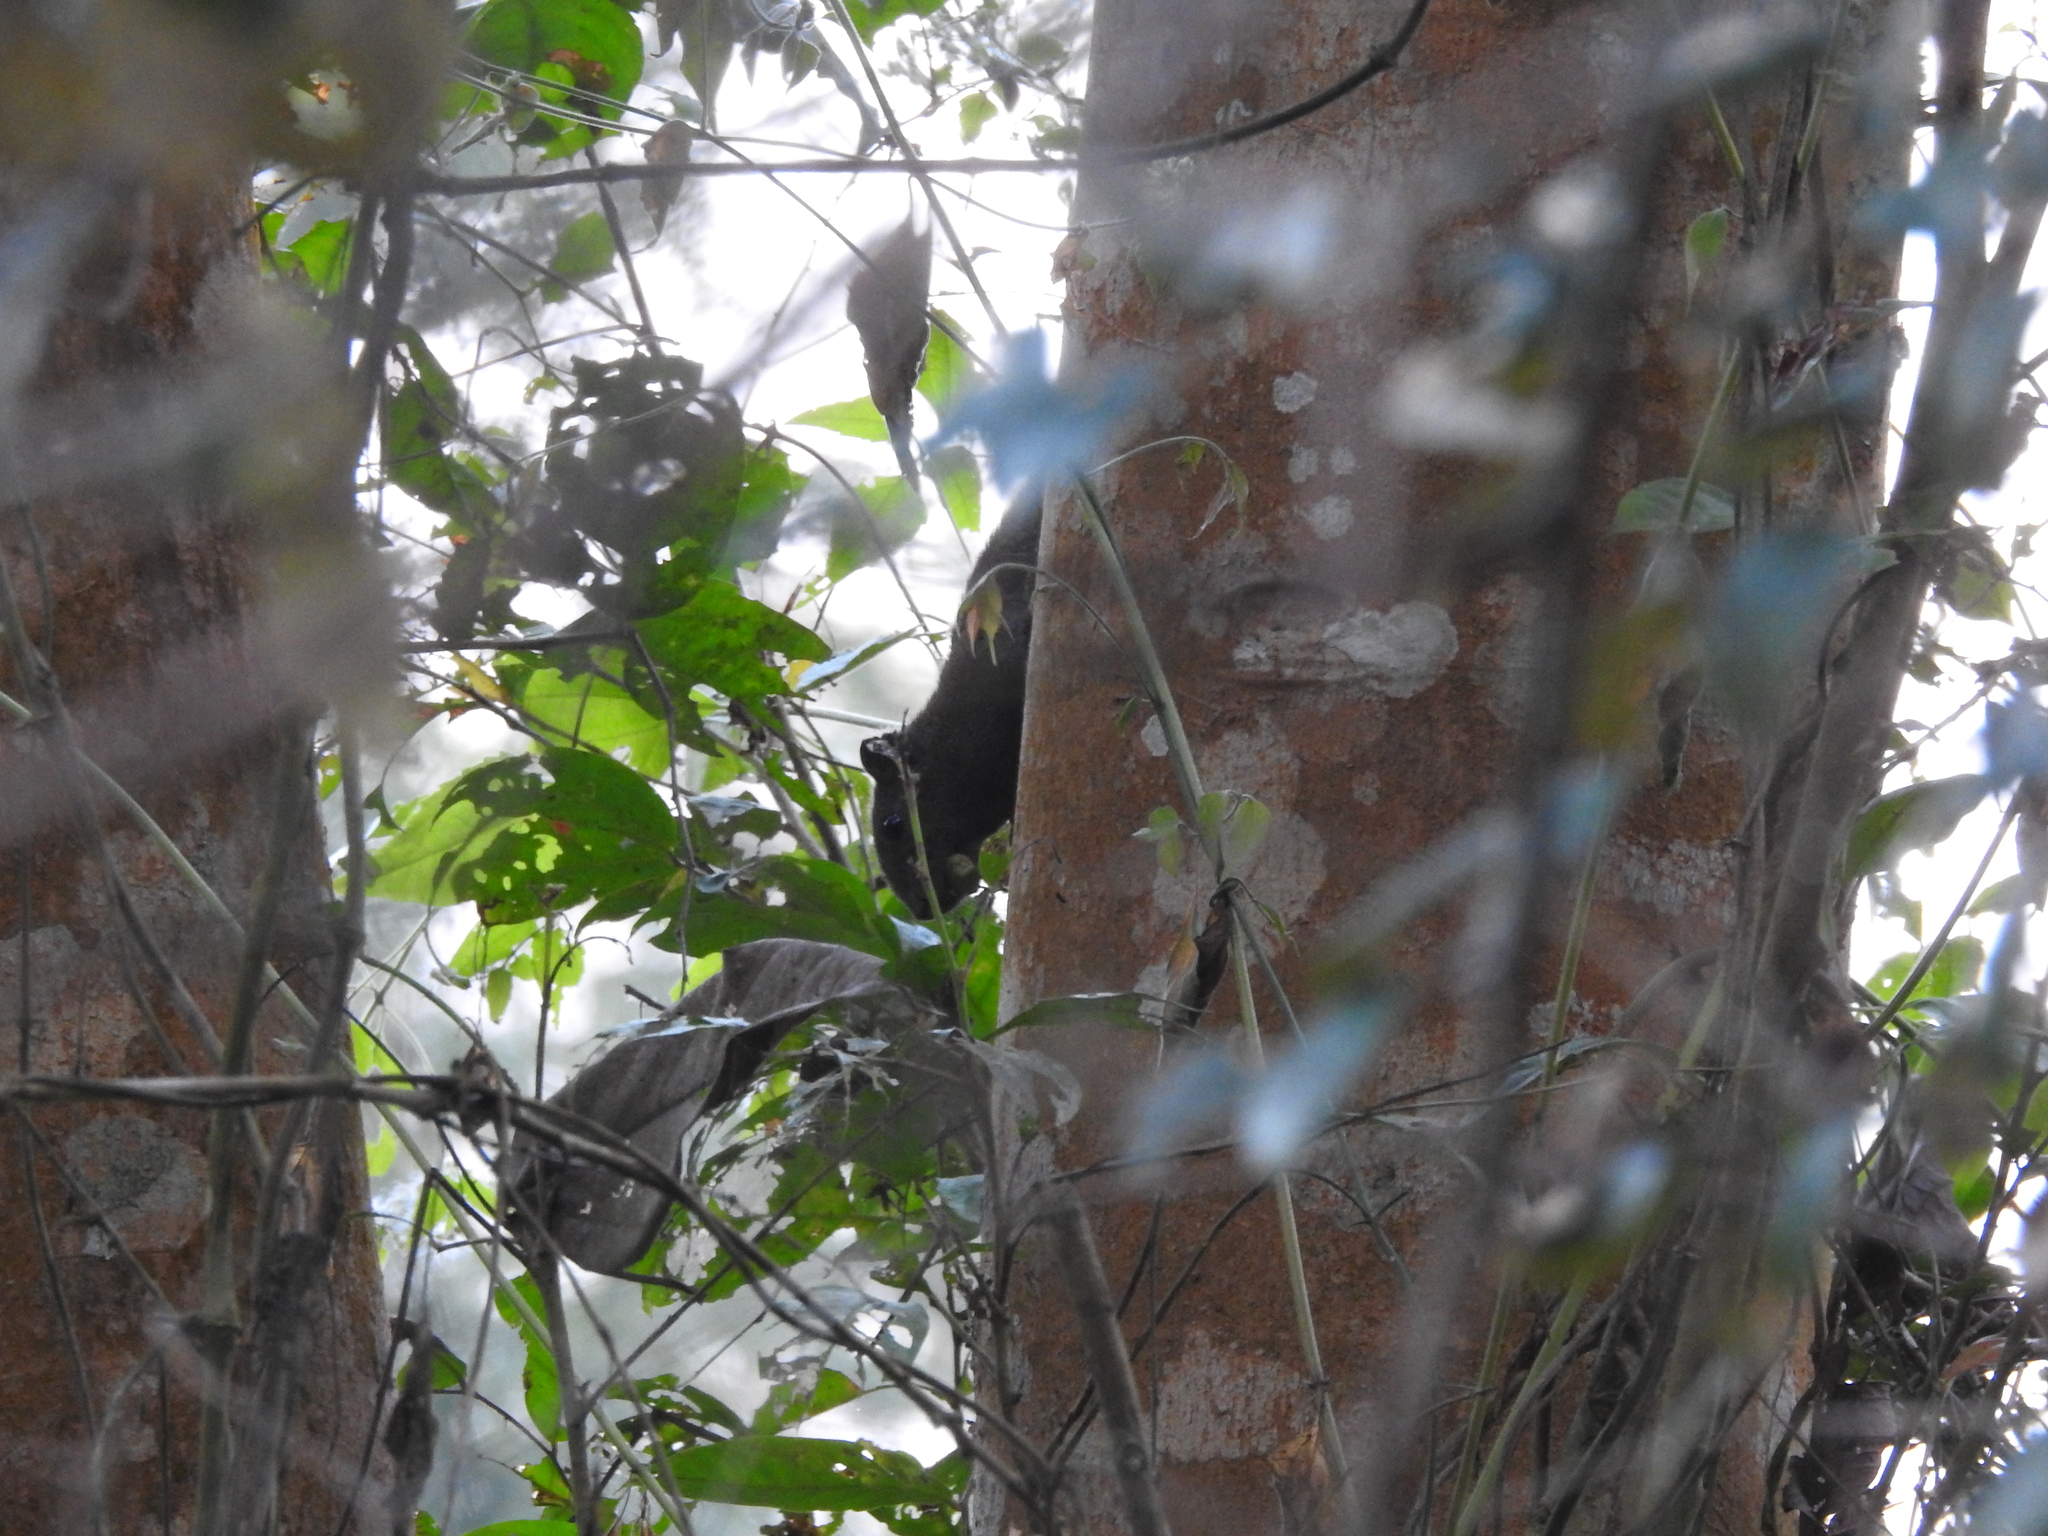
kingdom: Animalia
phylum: Chordata
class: Mammalia
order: Rodentia
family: Sciuridae
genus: Callosciurus
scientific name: Callosciurus pygerythrus
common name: Irrawaddy squirrel
